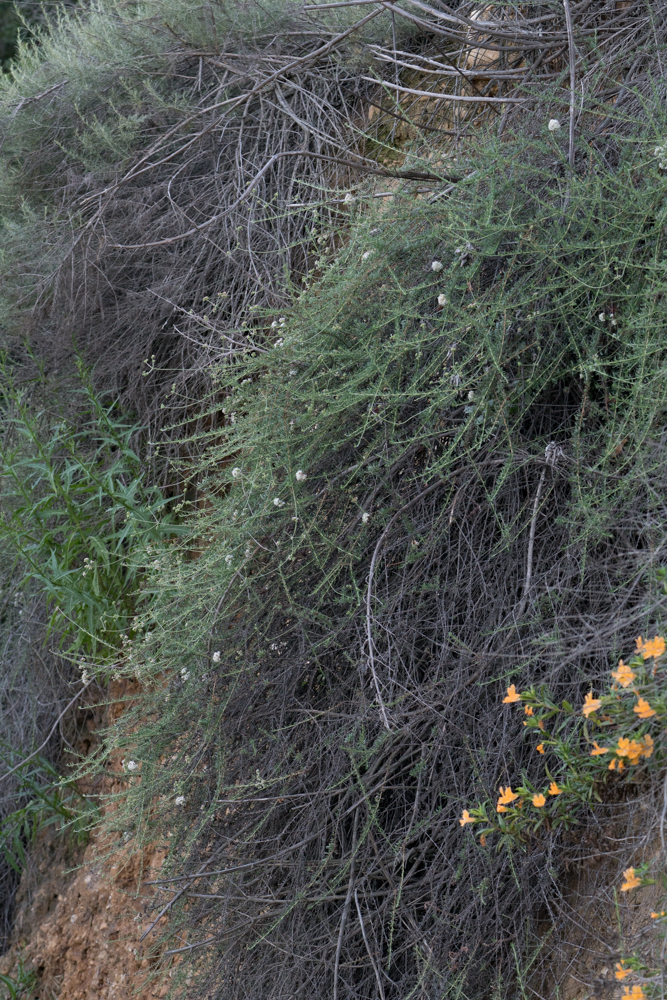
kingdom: Plantae
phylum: Tracheophyta
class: Magnoliopsida
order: Caryophyllales
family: Polygonaceae
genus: Eriogonum
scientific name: Eriogonum fasciculatum
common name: California wild buckwheat
